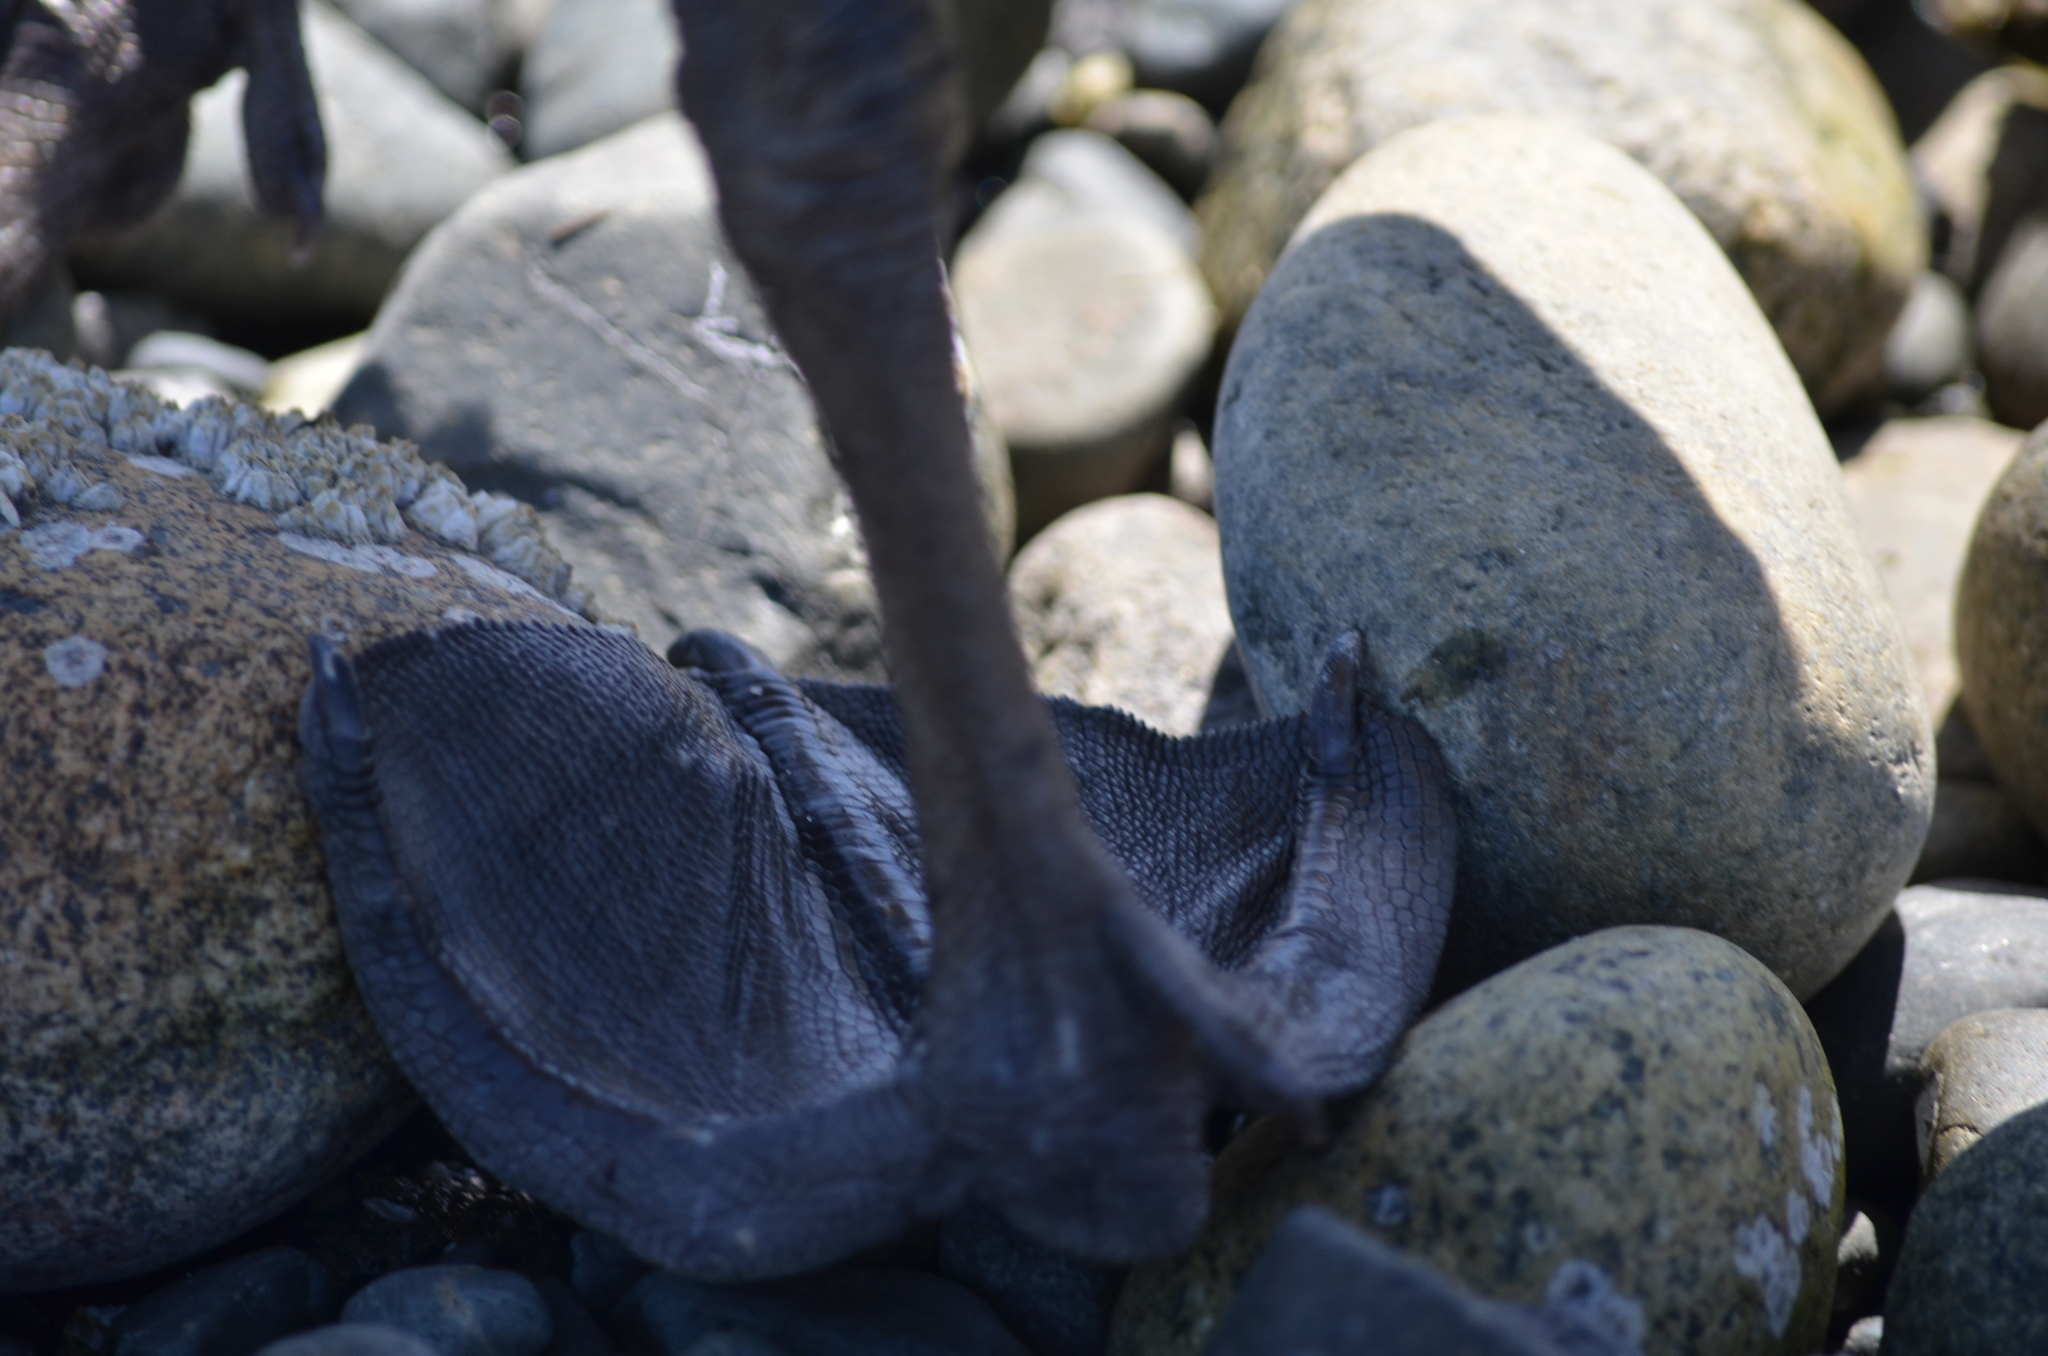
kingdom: Animalia
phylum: Chordata
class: Aves
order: Anseriformes
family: Anatidae
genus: Branta
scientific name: Branta canadensis
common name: Canada goose
